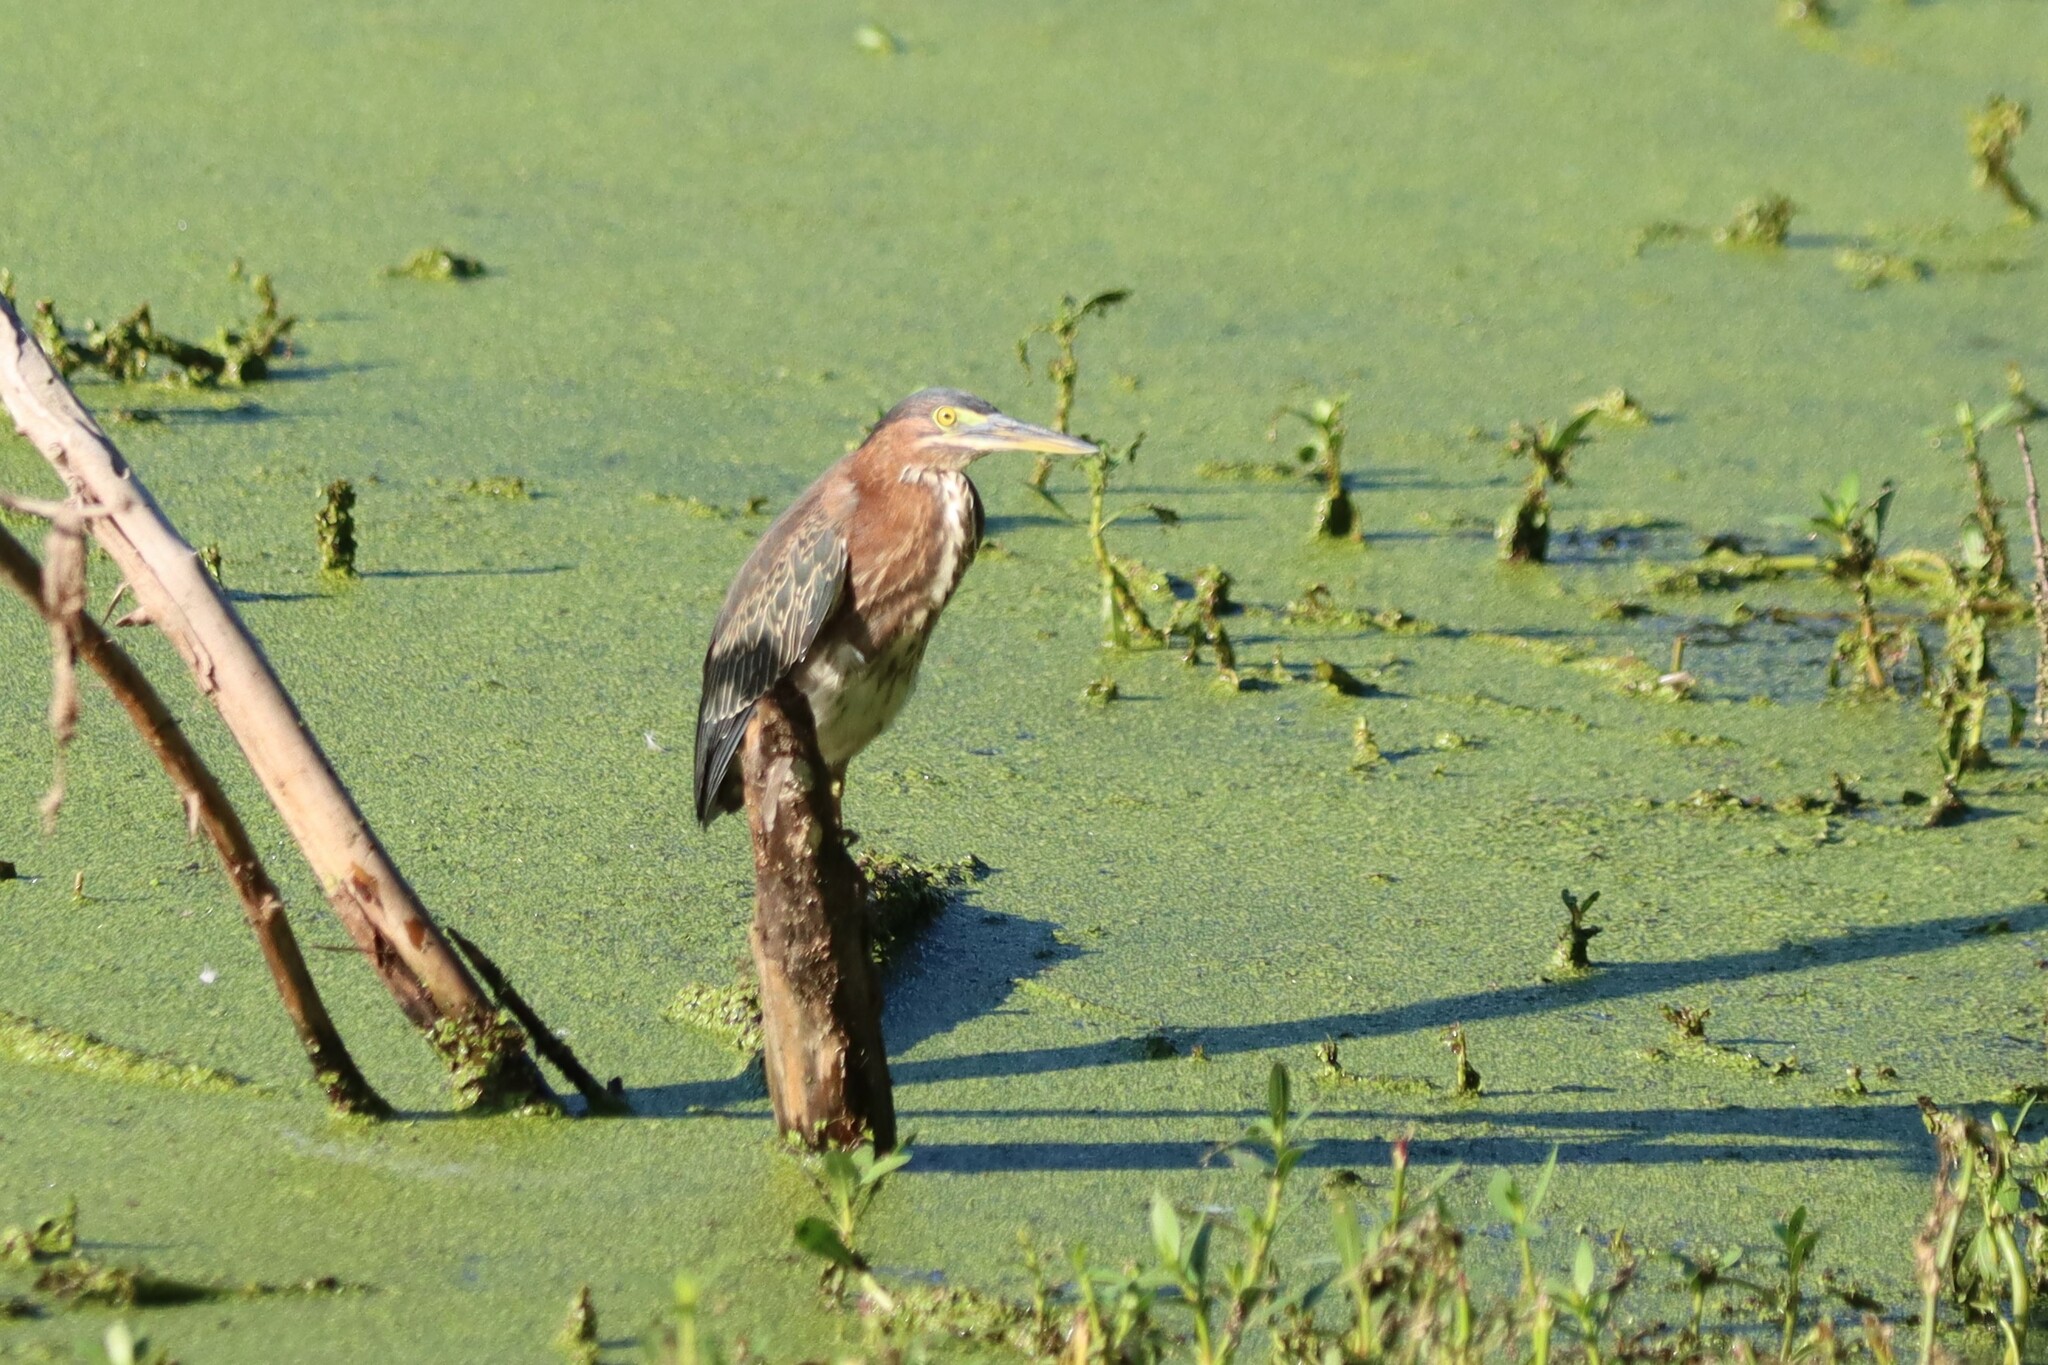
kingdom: Animalia
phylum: Chordata
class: Aves
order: Pelecaniformes
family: Ardeidae
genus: Butorides
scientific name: Butorides virescens
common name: Green heron
